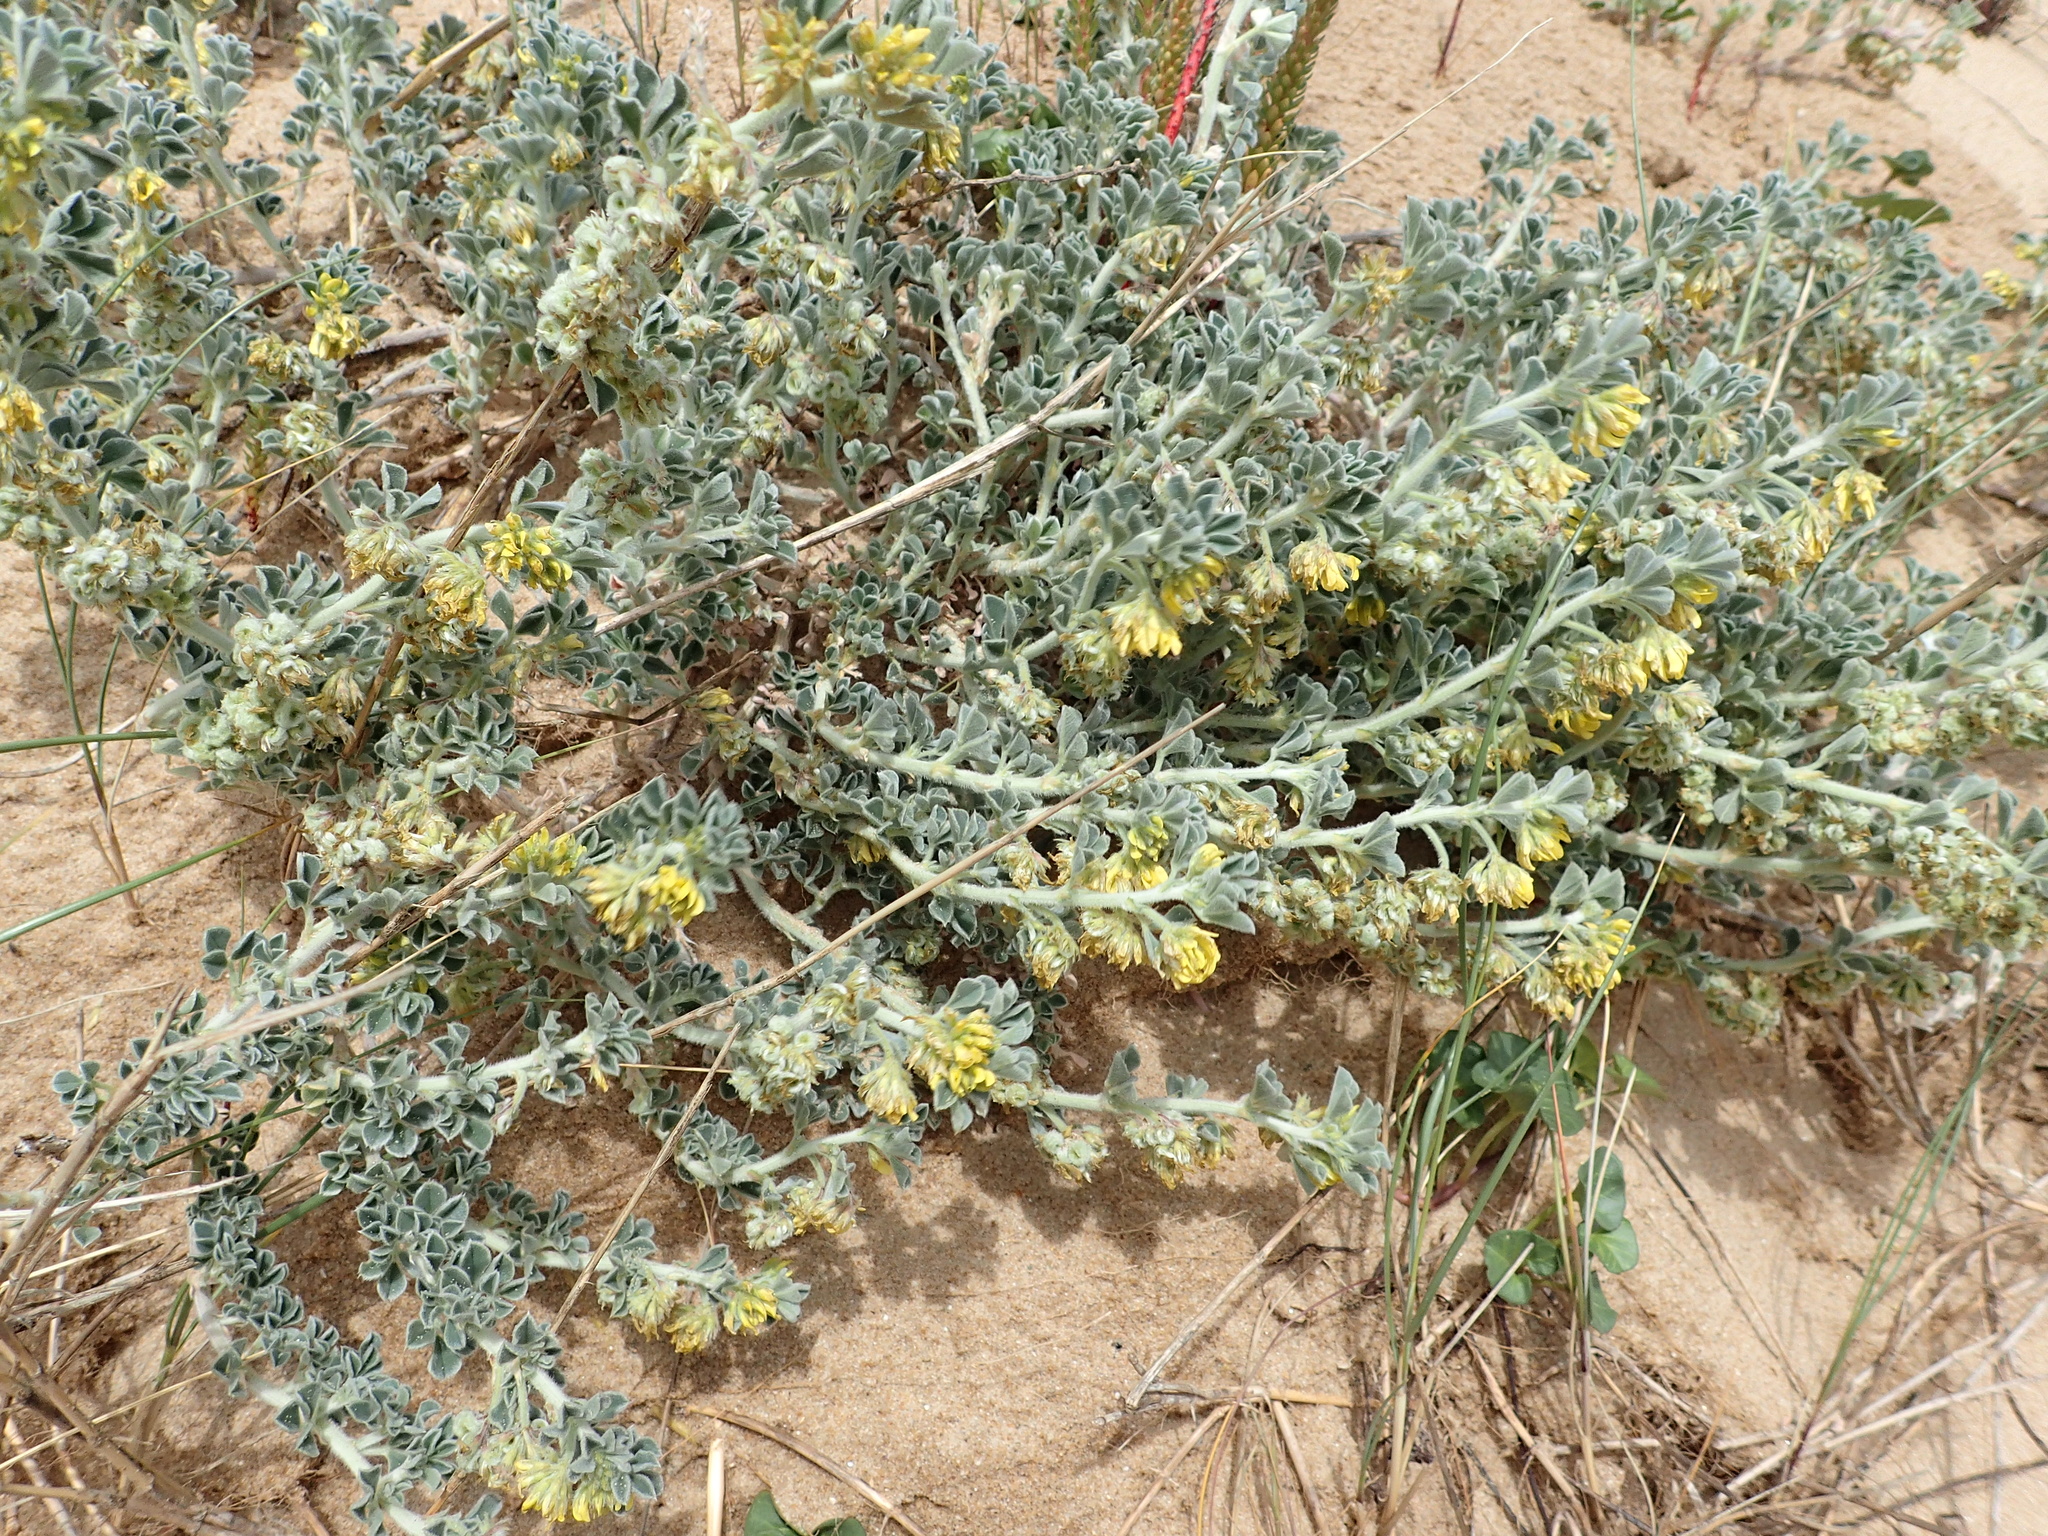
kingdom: Plantae
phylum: Tracheophyta
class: Magnoliopsida
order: Fabales
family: Fabaceae
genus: Medicago
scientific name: Medicago marina
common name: Sea medick
